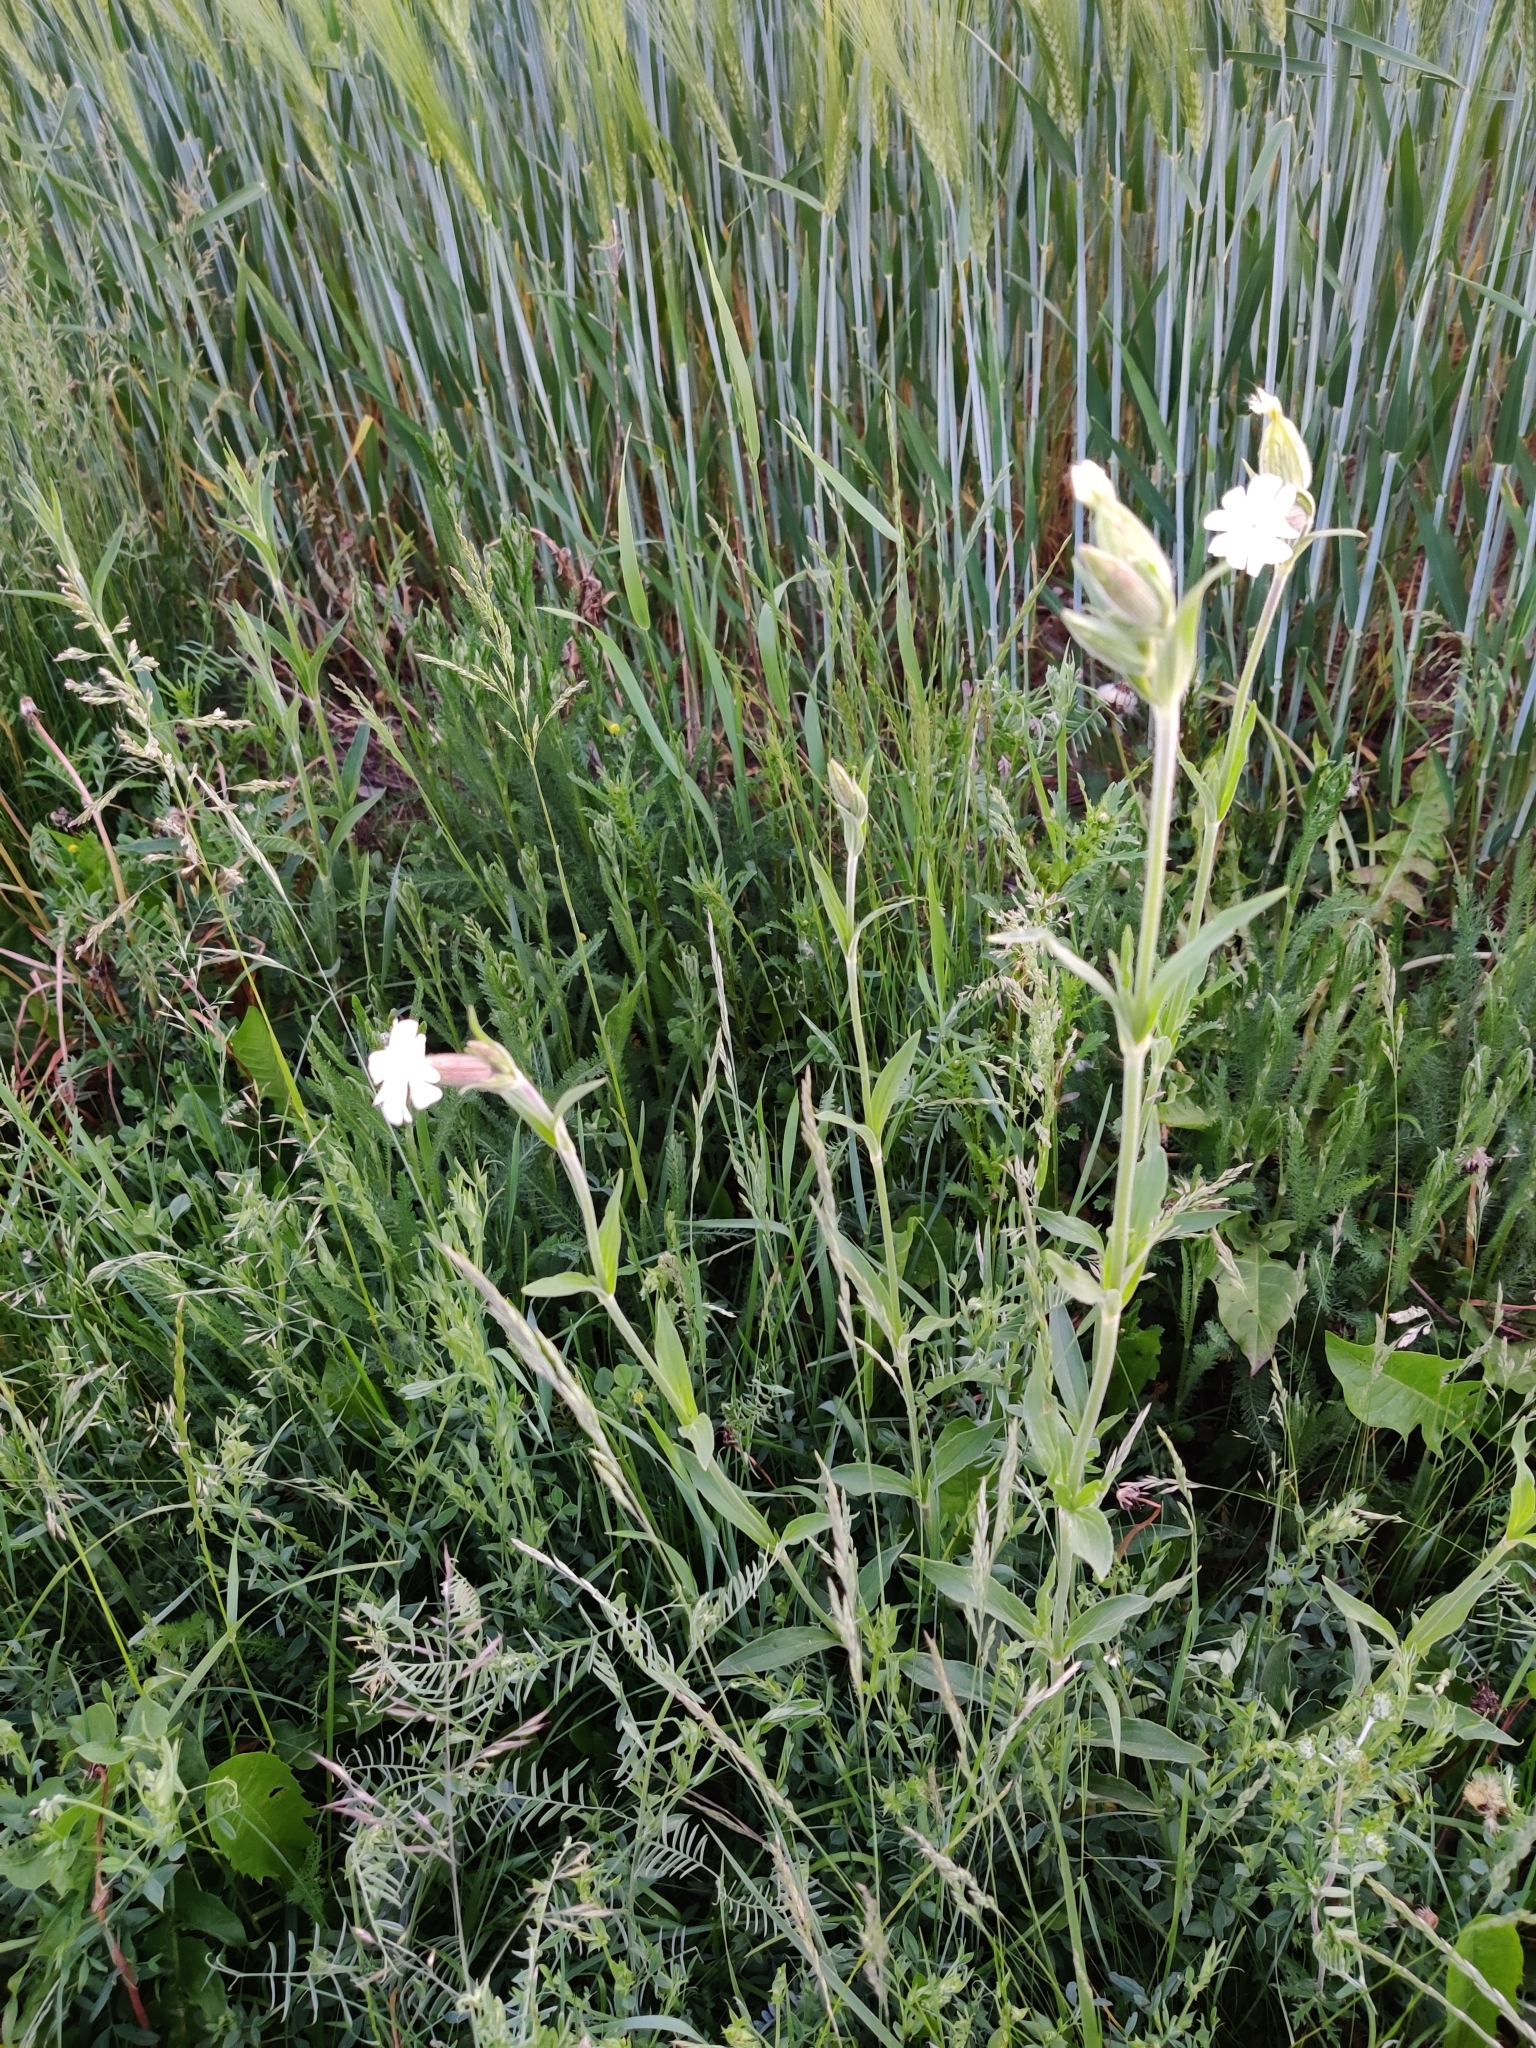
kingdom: Plantae
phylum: Tracheophyta
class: Magnoliopsida
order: Caryophyllales
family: Caryophyllaceae
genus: Silene
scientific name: Silene latifolia
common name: White campion
